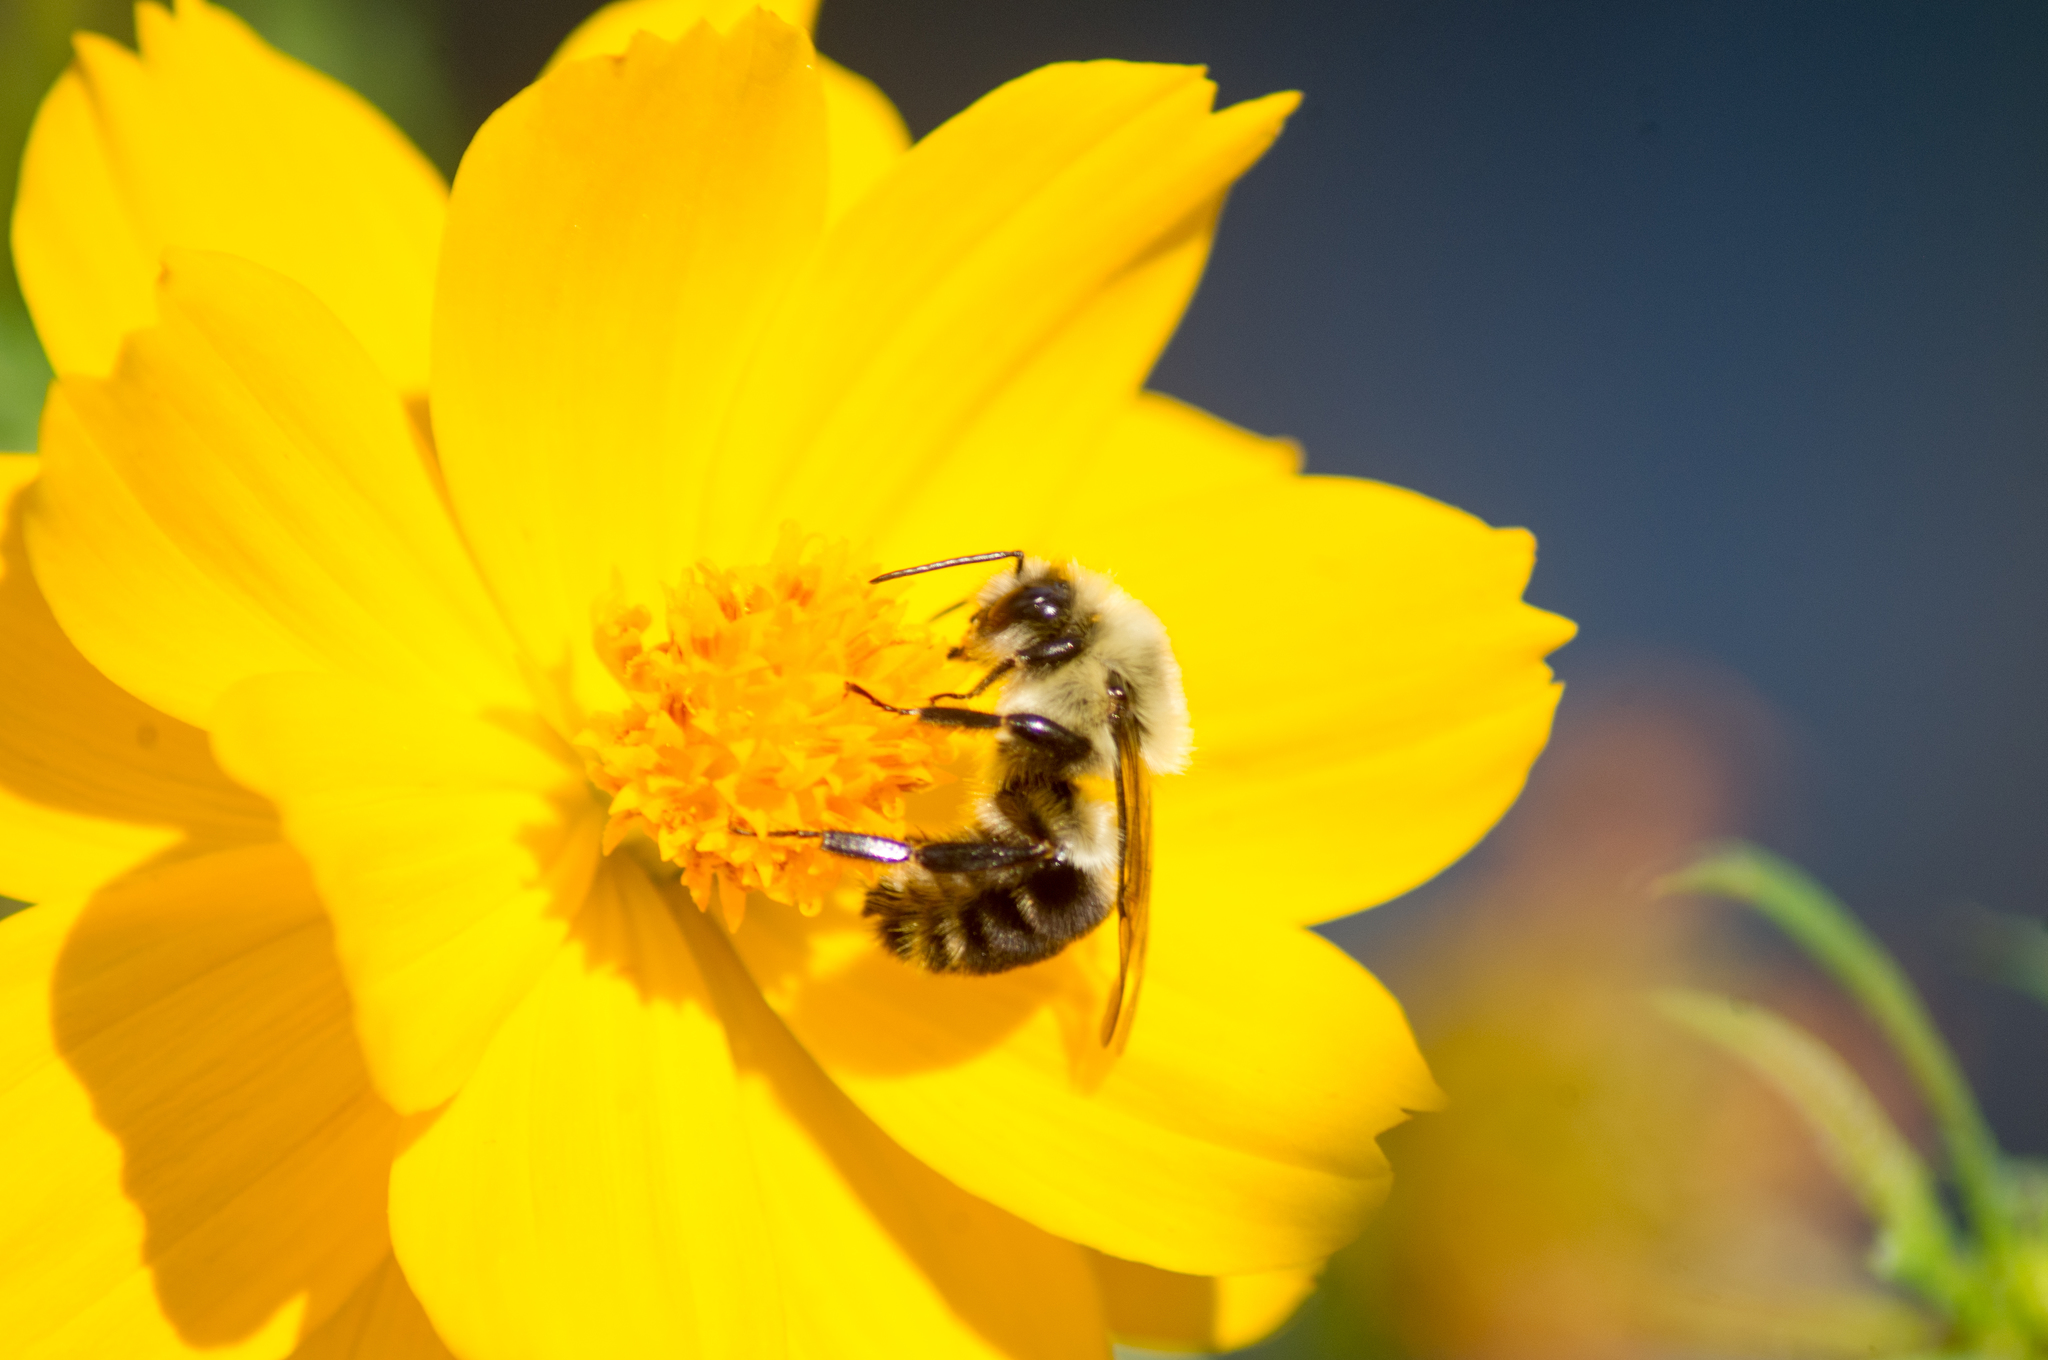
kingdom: Animalia
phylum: Arthropoda
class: Insecta
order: Hymenoptera
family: Apidae
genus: Bombus
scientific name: Bombus impatiens
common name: Common eastern bumble bee
